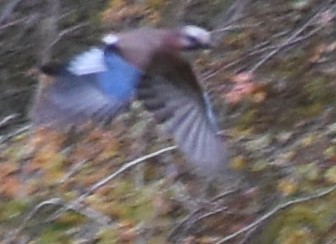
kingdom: Animalia
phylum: Chordata
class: Aves
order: Passeriformes
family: Corvidae
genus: Garrulus
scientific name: Garrulus glandarius
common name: Eurasian jay
